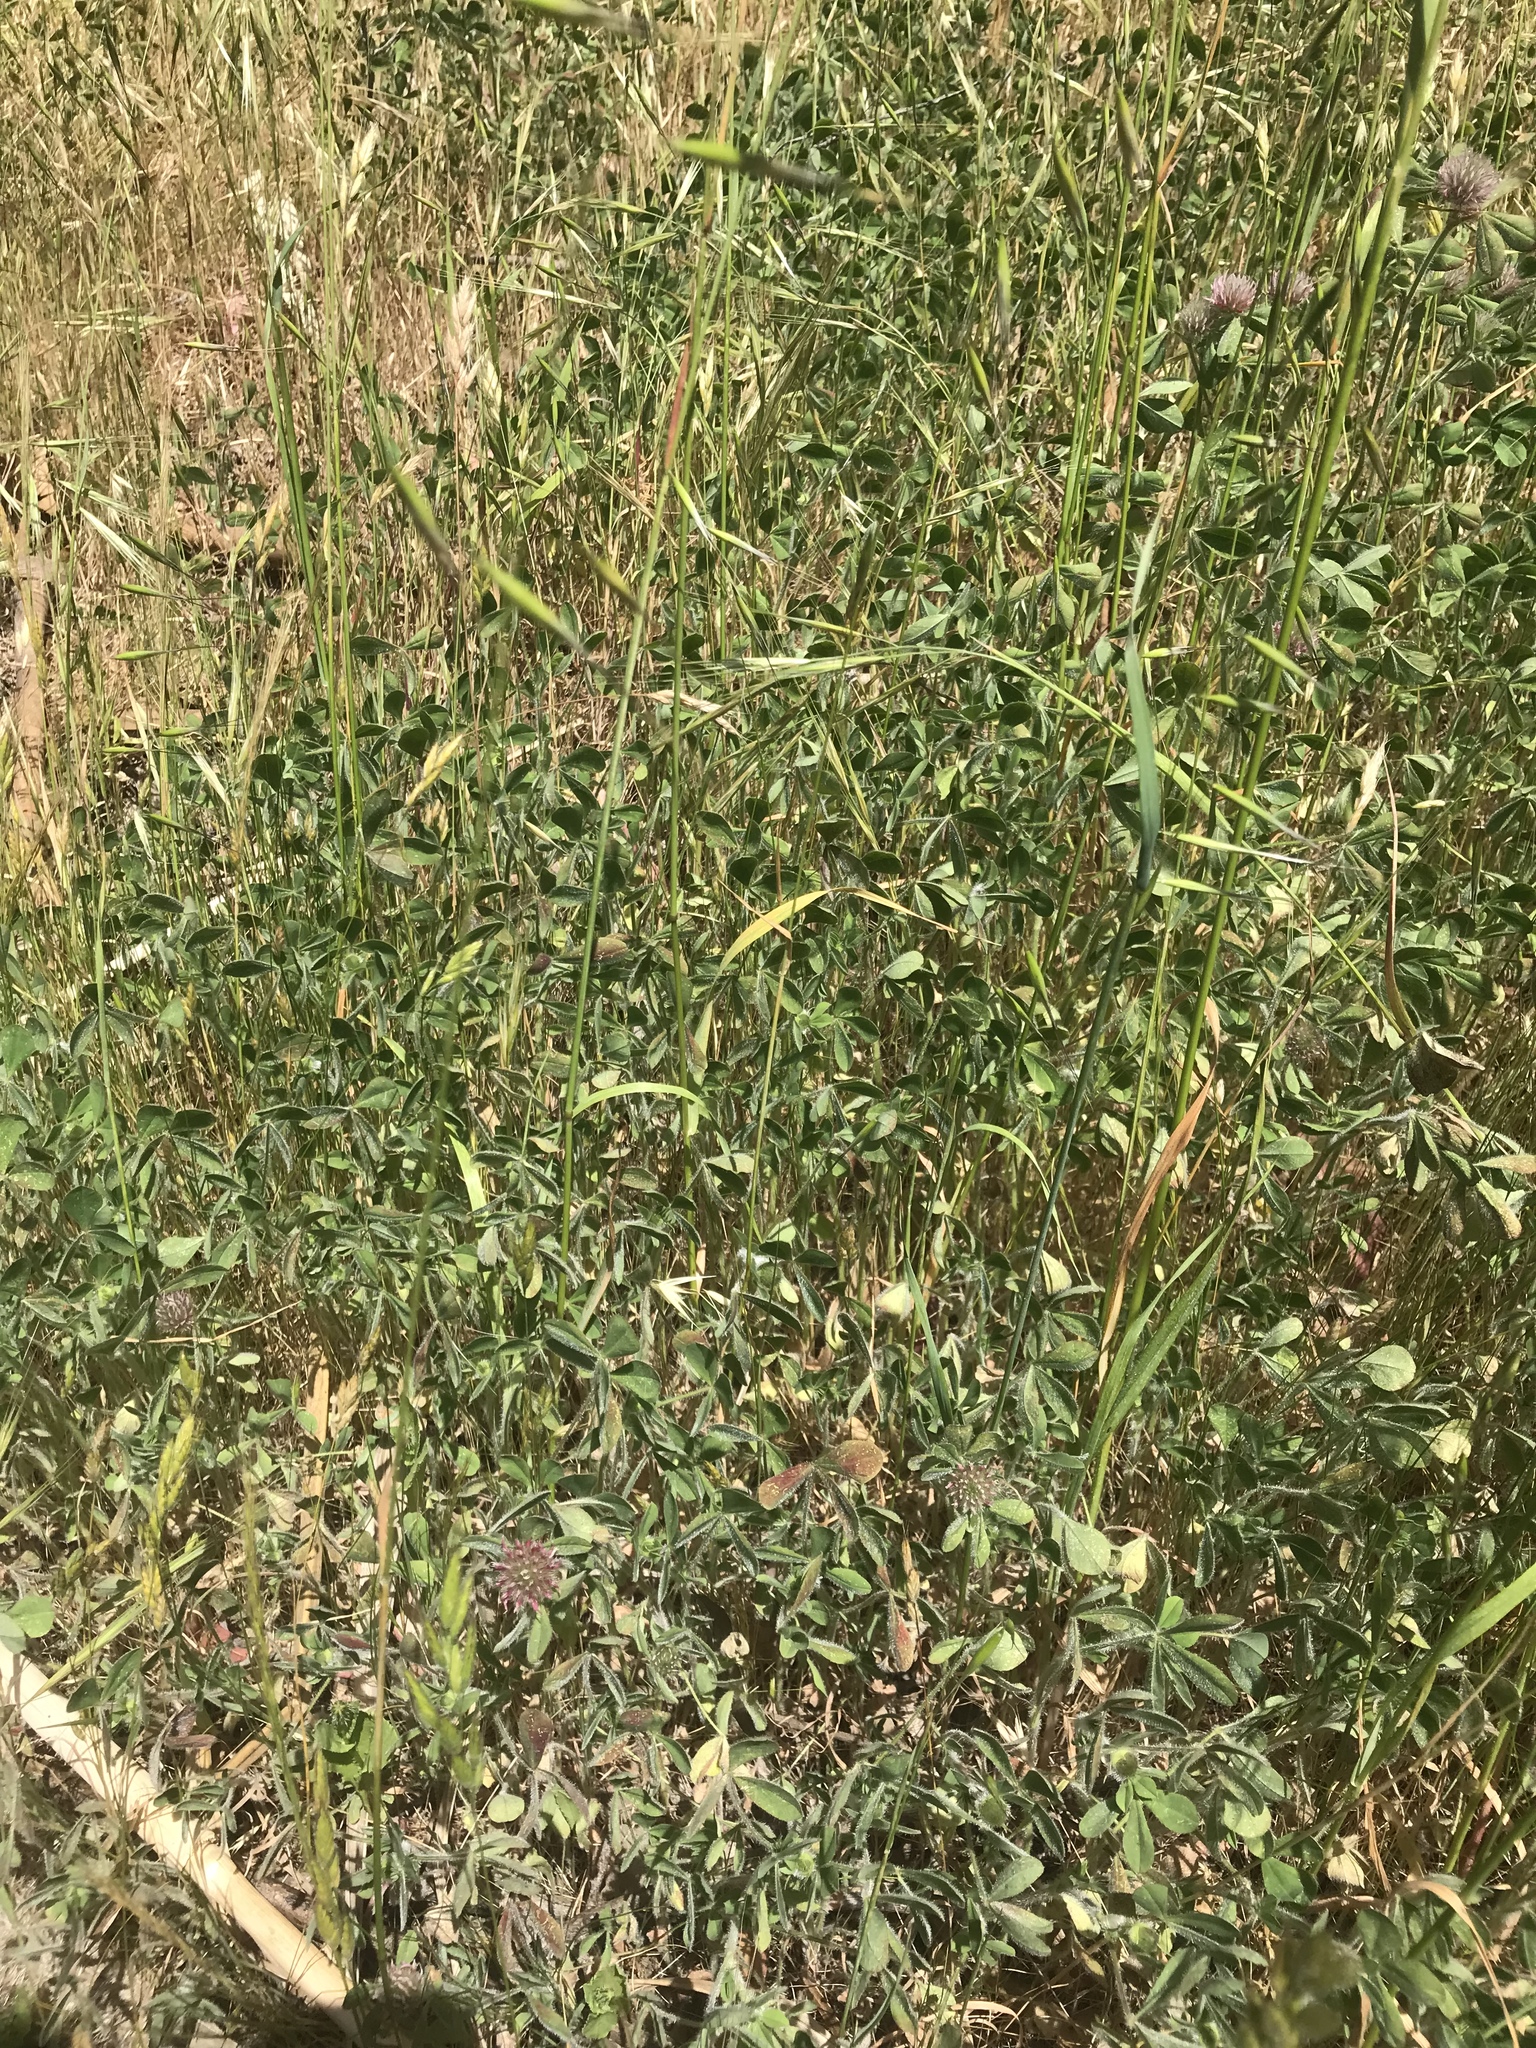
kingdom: Plantae
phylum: Tracheophyta
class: Magnoliopsida
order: Fabales
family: Fabaceae
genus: Trifolium
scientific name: Trifolium hirtum
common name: Rose clover
